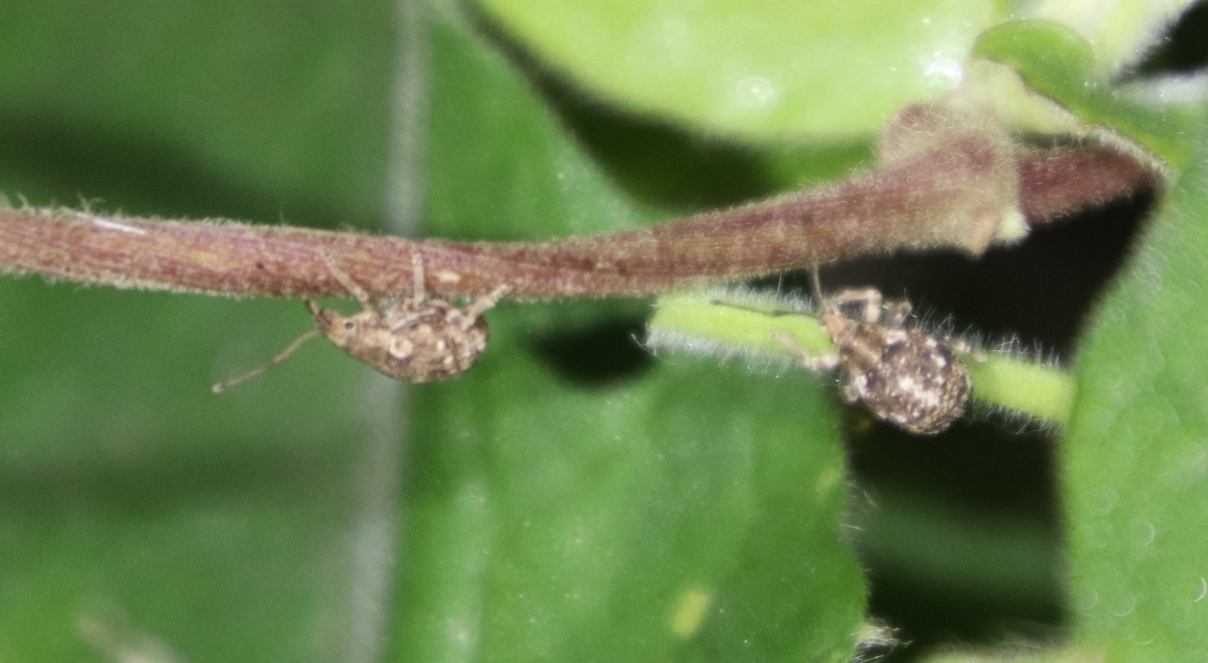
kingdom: Animalia
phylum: Arthropoda
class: Insecta
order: Coleoptera
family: Curculionidae
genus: Ellimenistes
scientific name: Ellimenistes laesicollis
